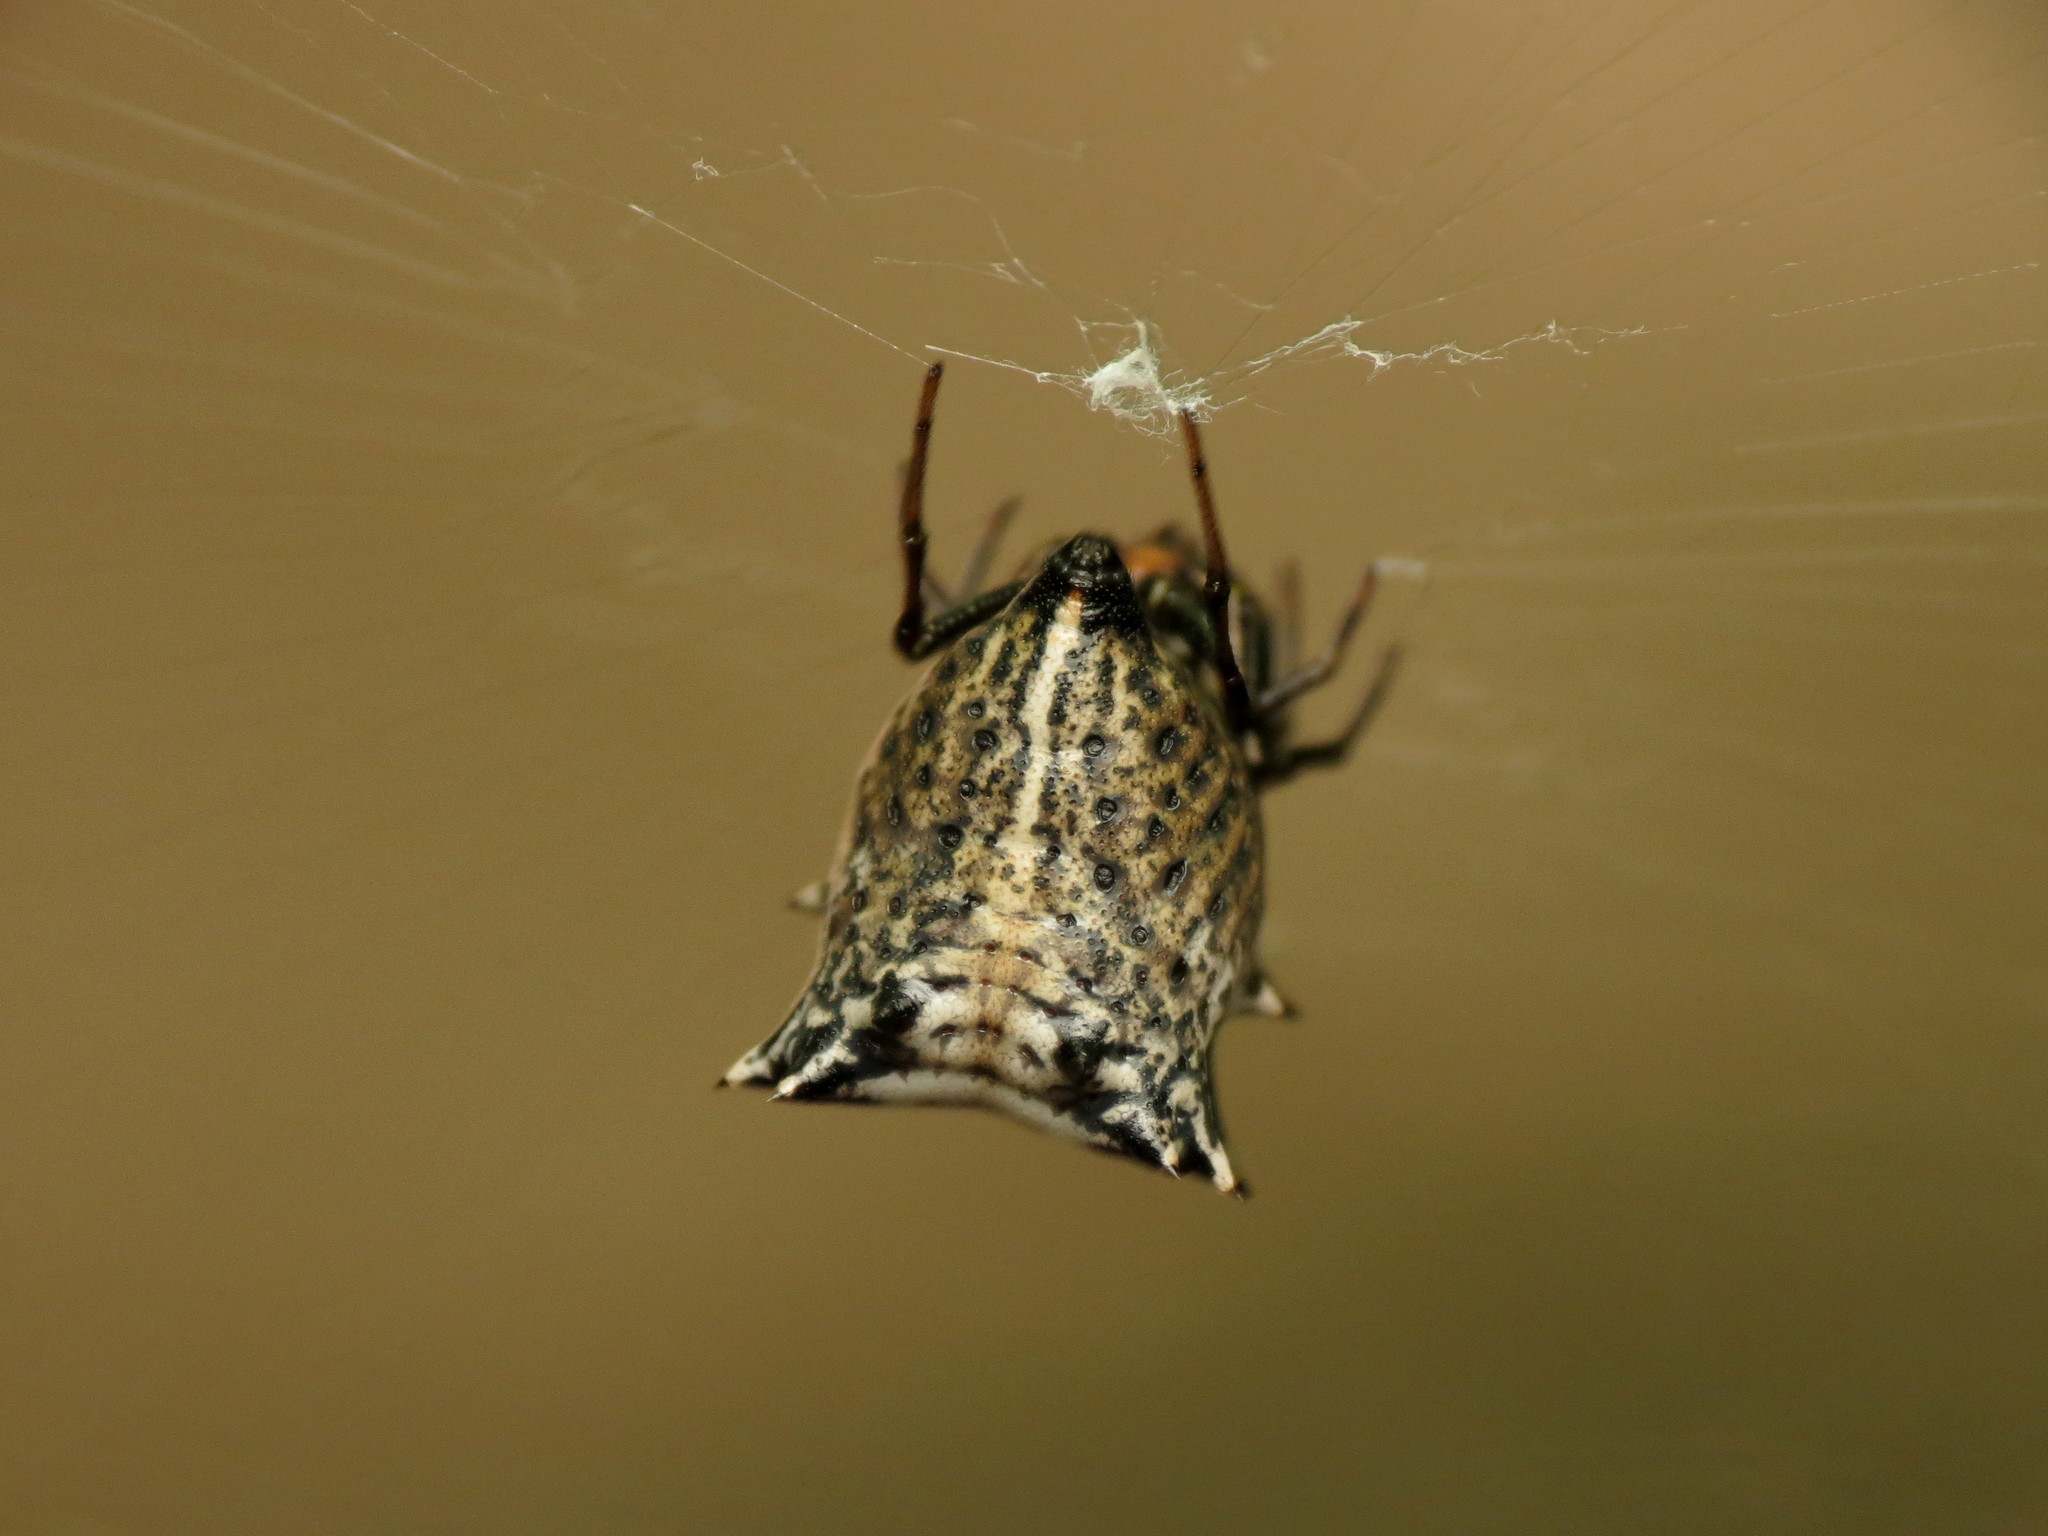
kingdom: Animalia
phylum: Arthropoda
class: Arachnida
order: Araneae
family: Araneidae
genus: Micrathena
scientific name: Micrathena gracilis
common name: Orb weavers
